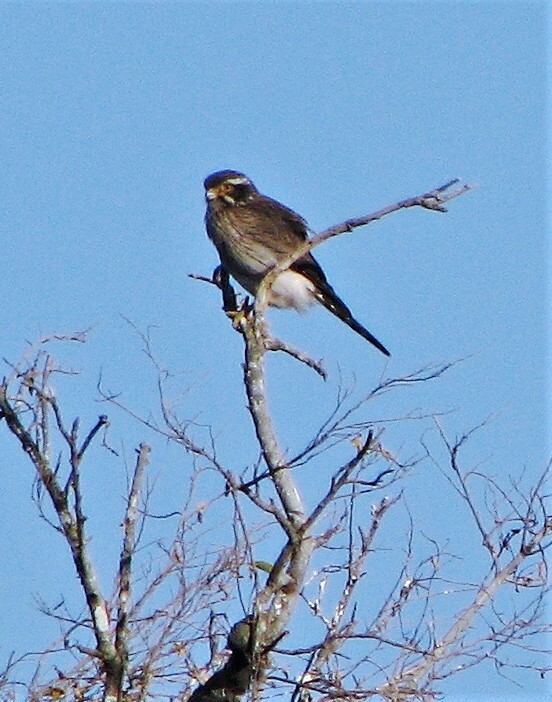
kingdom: Animalia
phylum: Chordata
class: Aves
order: Falconiformes
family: Falconidae
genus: Spiziapteryx
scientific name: Spiziapteryx circumcincta
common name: Spot-winged falconet
